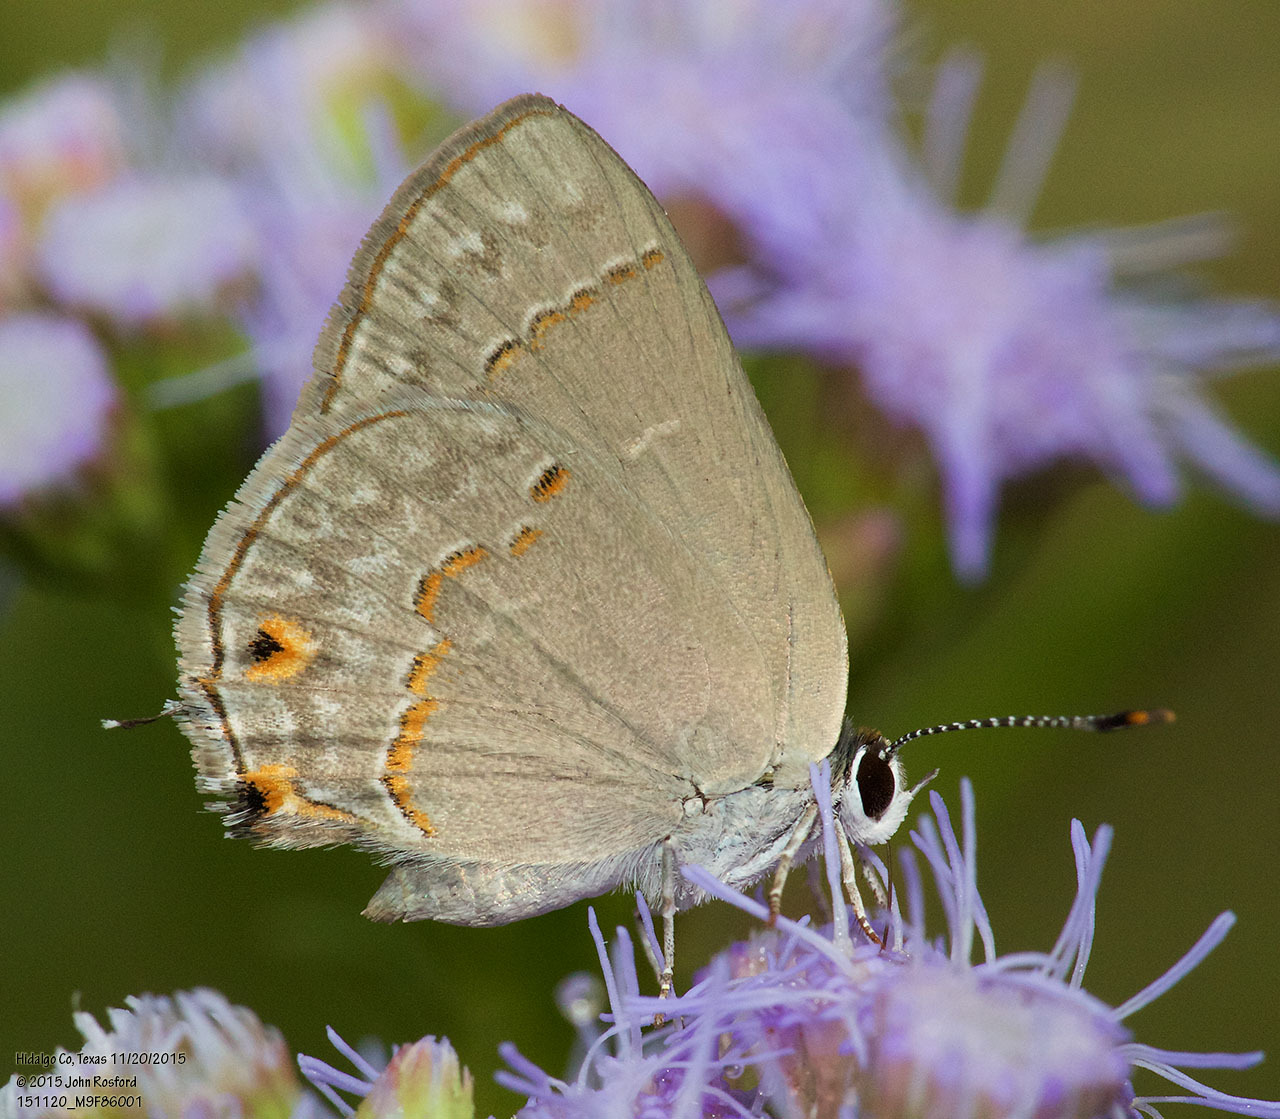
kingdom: Animalia
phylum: Arthropoda
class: Insecta
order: Lepidoptera
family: Lycaenidae
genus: Thecla
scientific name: Thecla rufofusca
